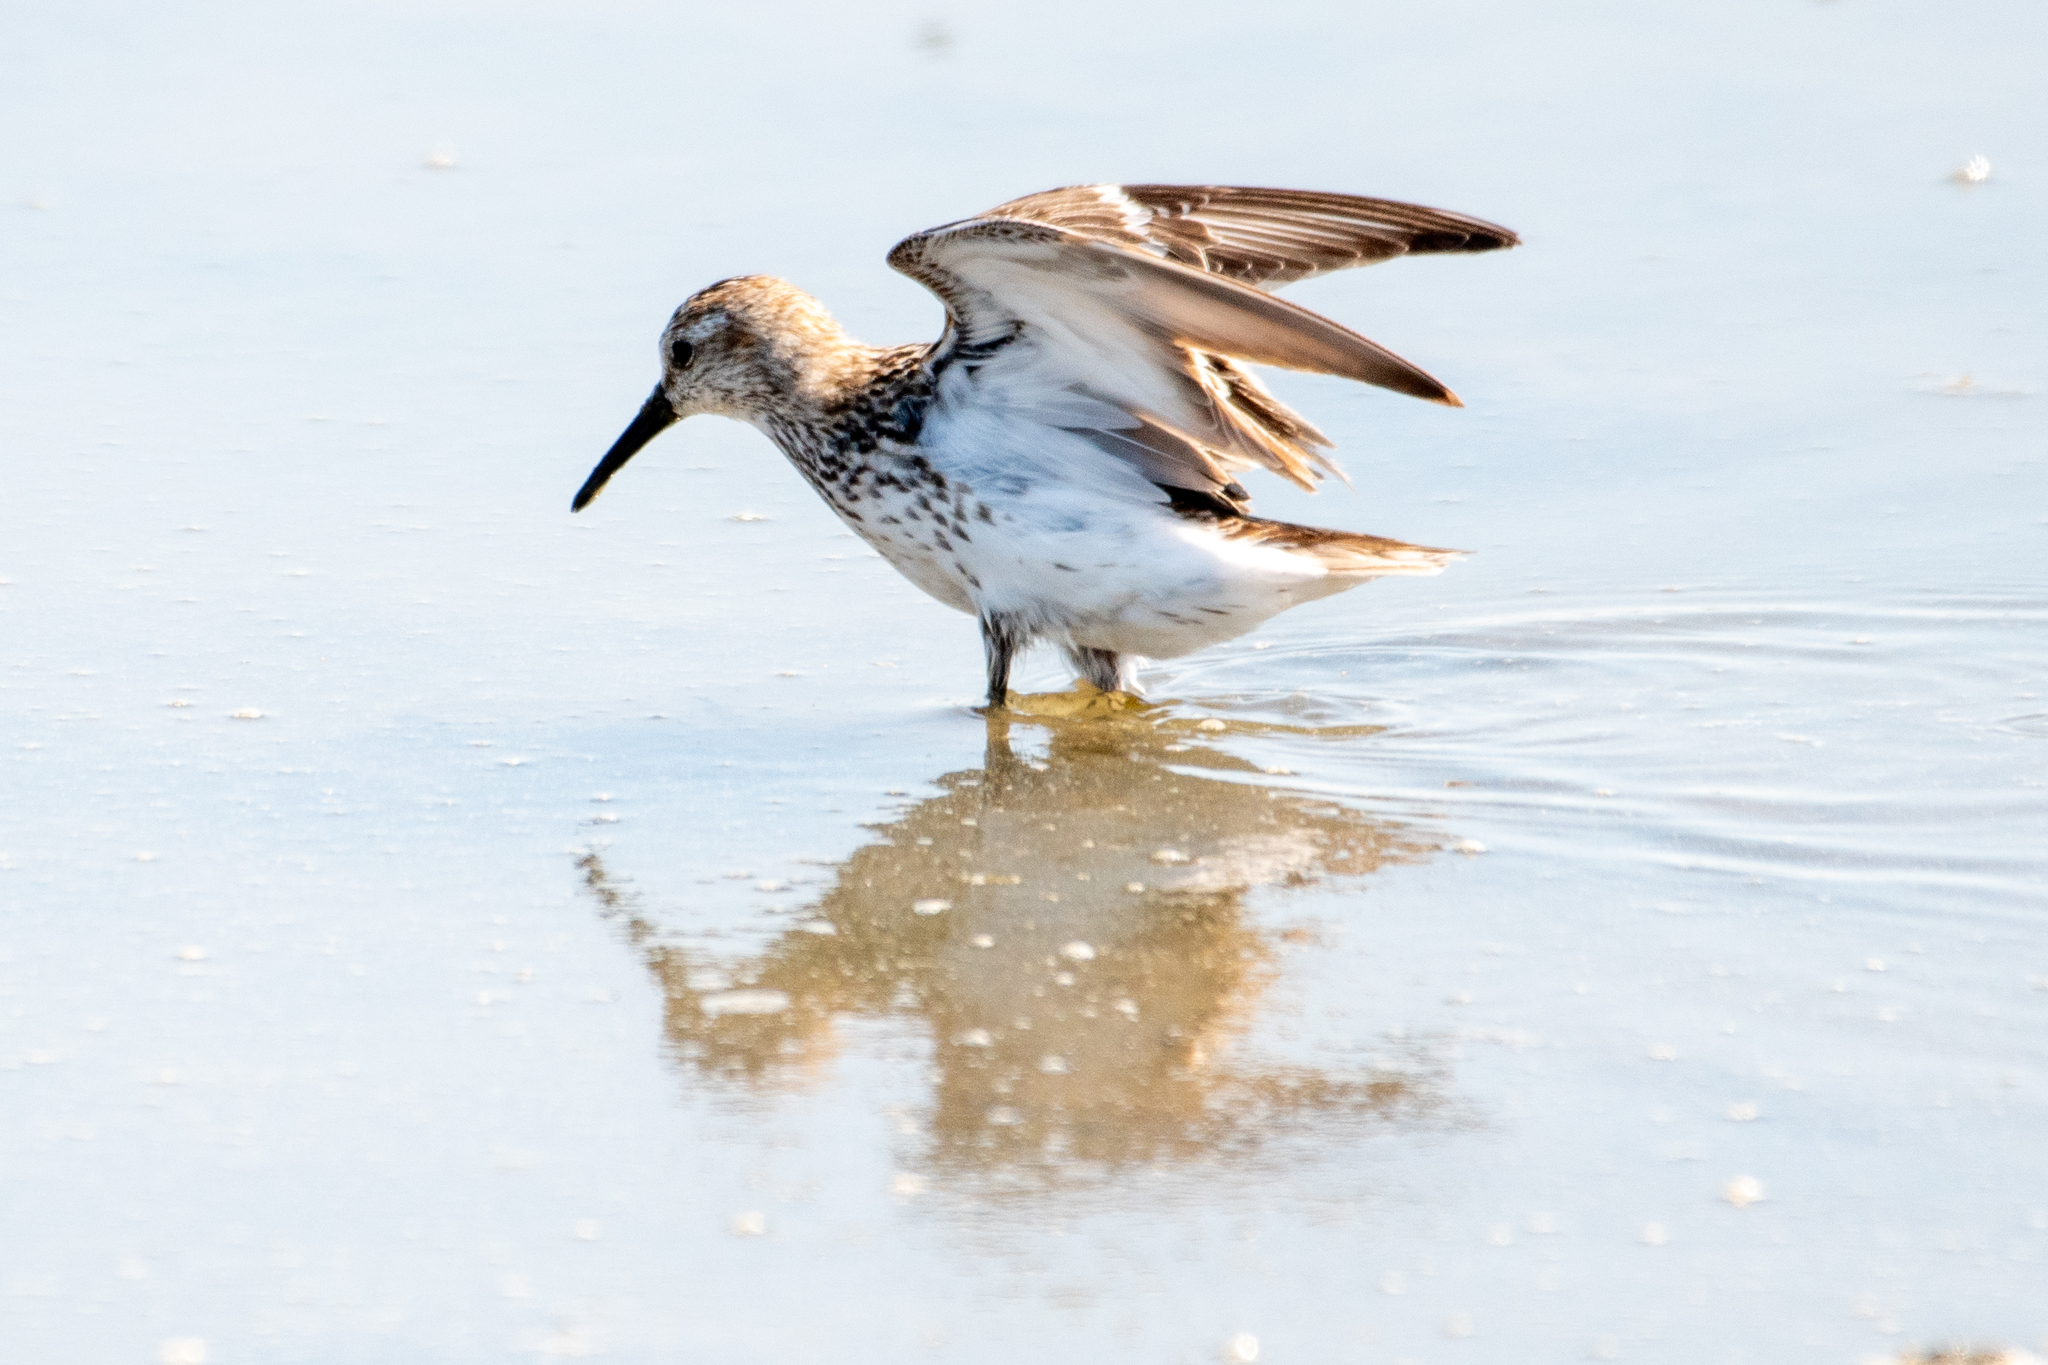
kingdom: Animalia
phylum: Chordata
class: Aves
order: Charadriiformes
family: Scolopacidae
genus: Calidris
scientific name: Calidris mauri
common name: Western sandpiper
